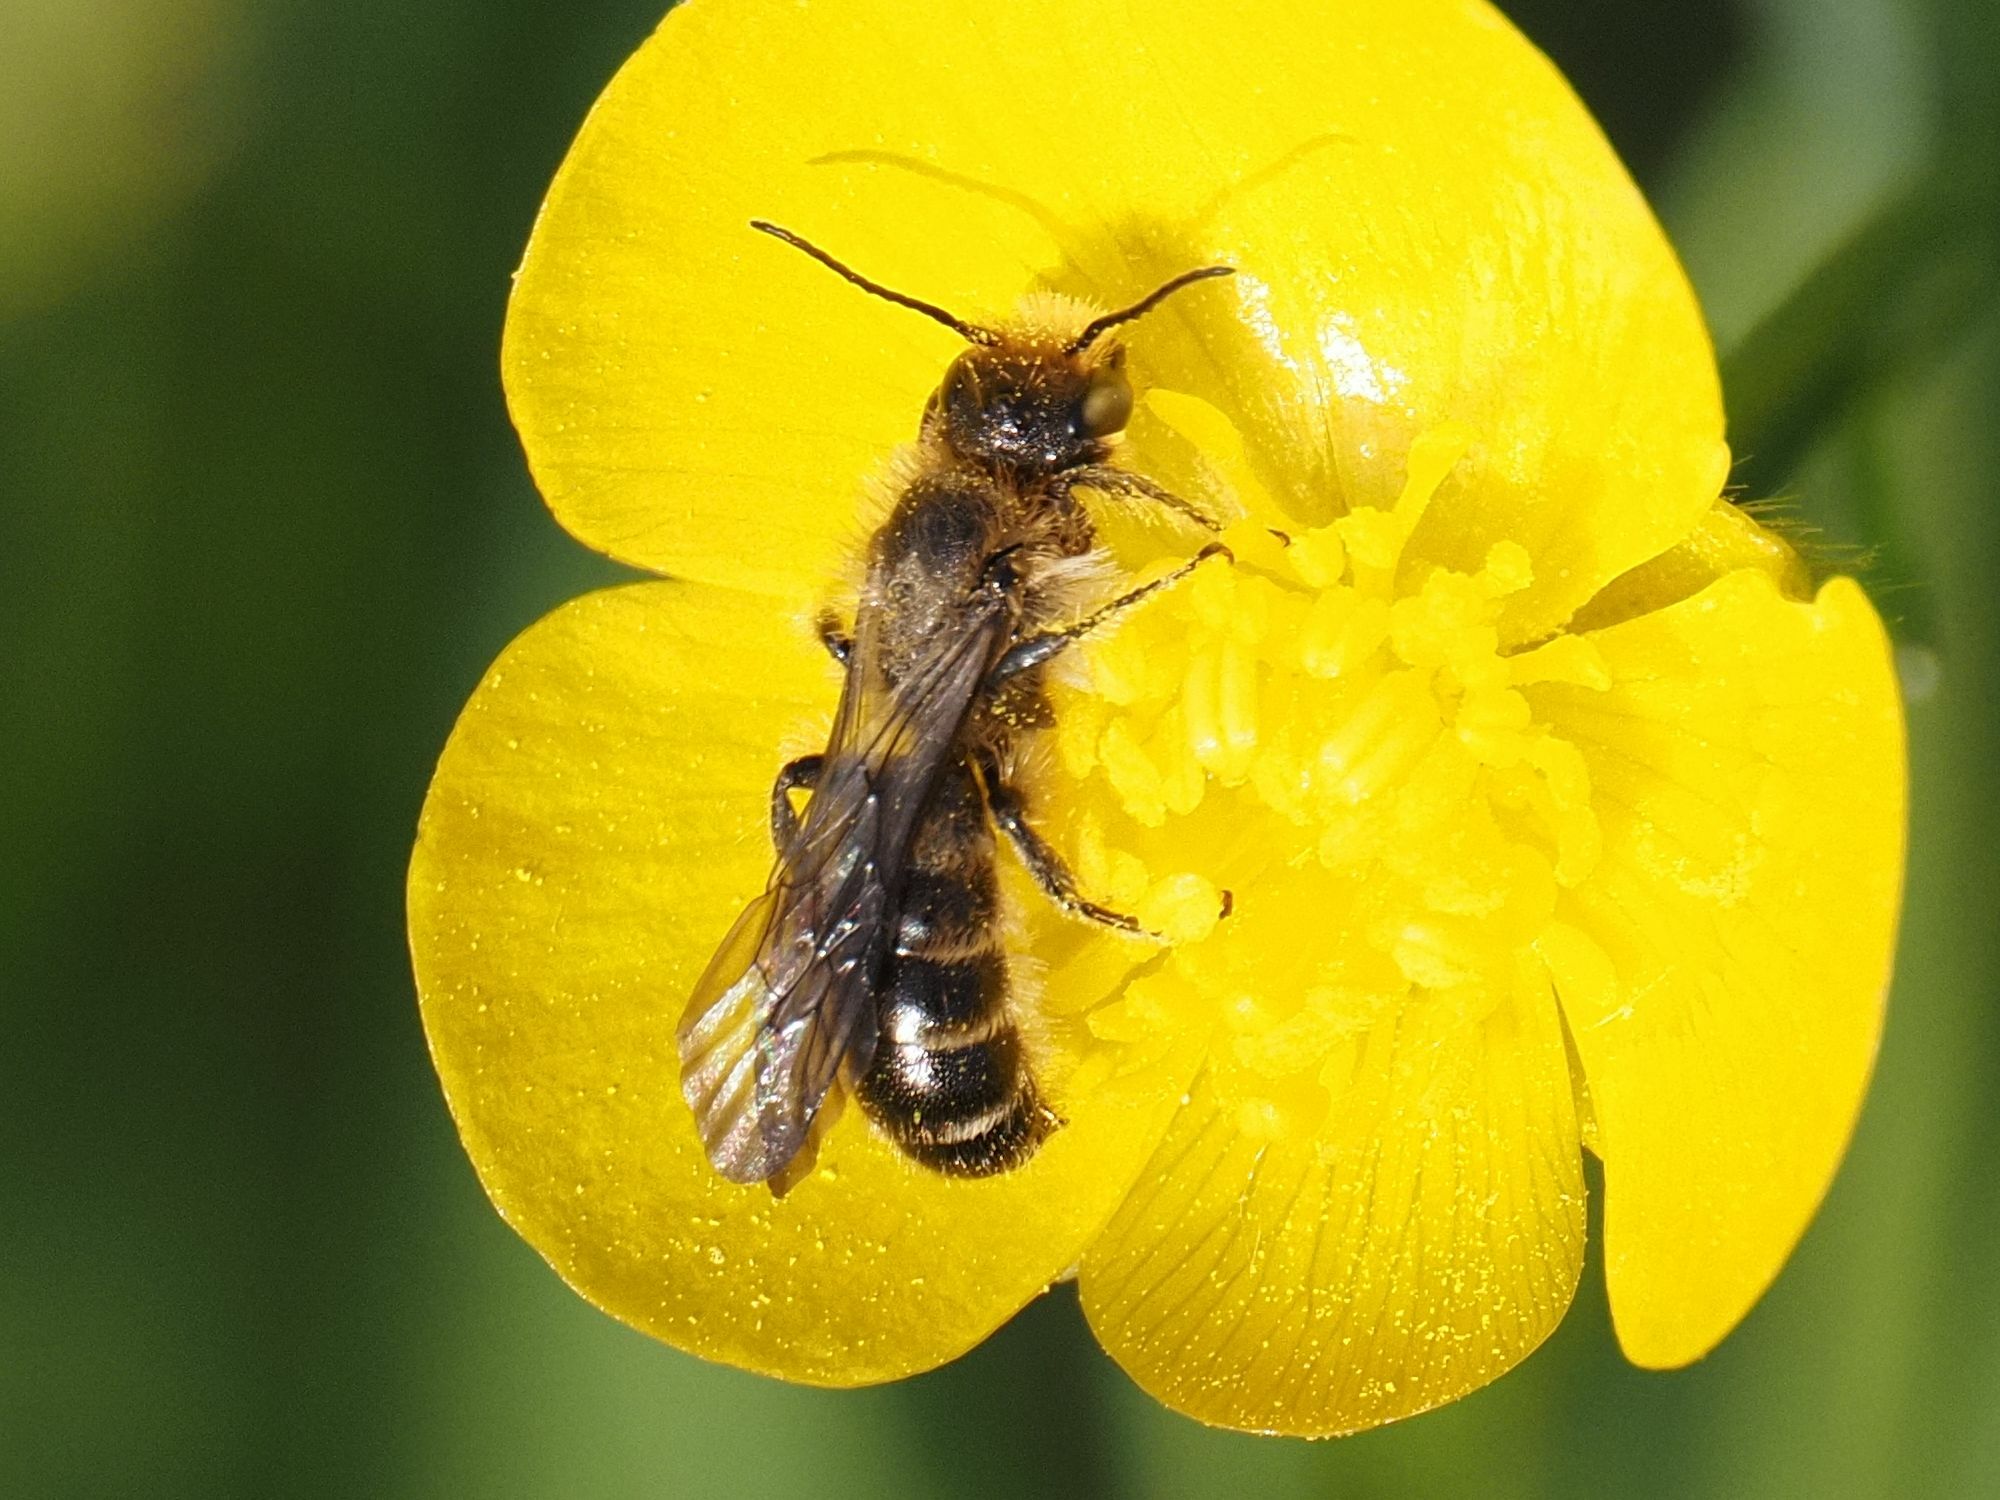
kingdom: Animalia
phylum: Arthropoda
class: Insecta
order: Hymenoptera
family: Megachilidae
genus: Chelostoma
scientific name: Chelostoma florisomne
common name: Sleepy carpenter bee
